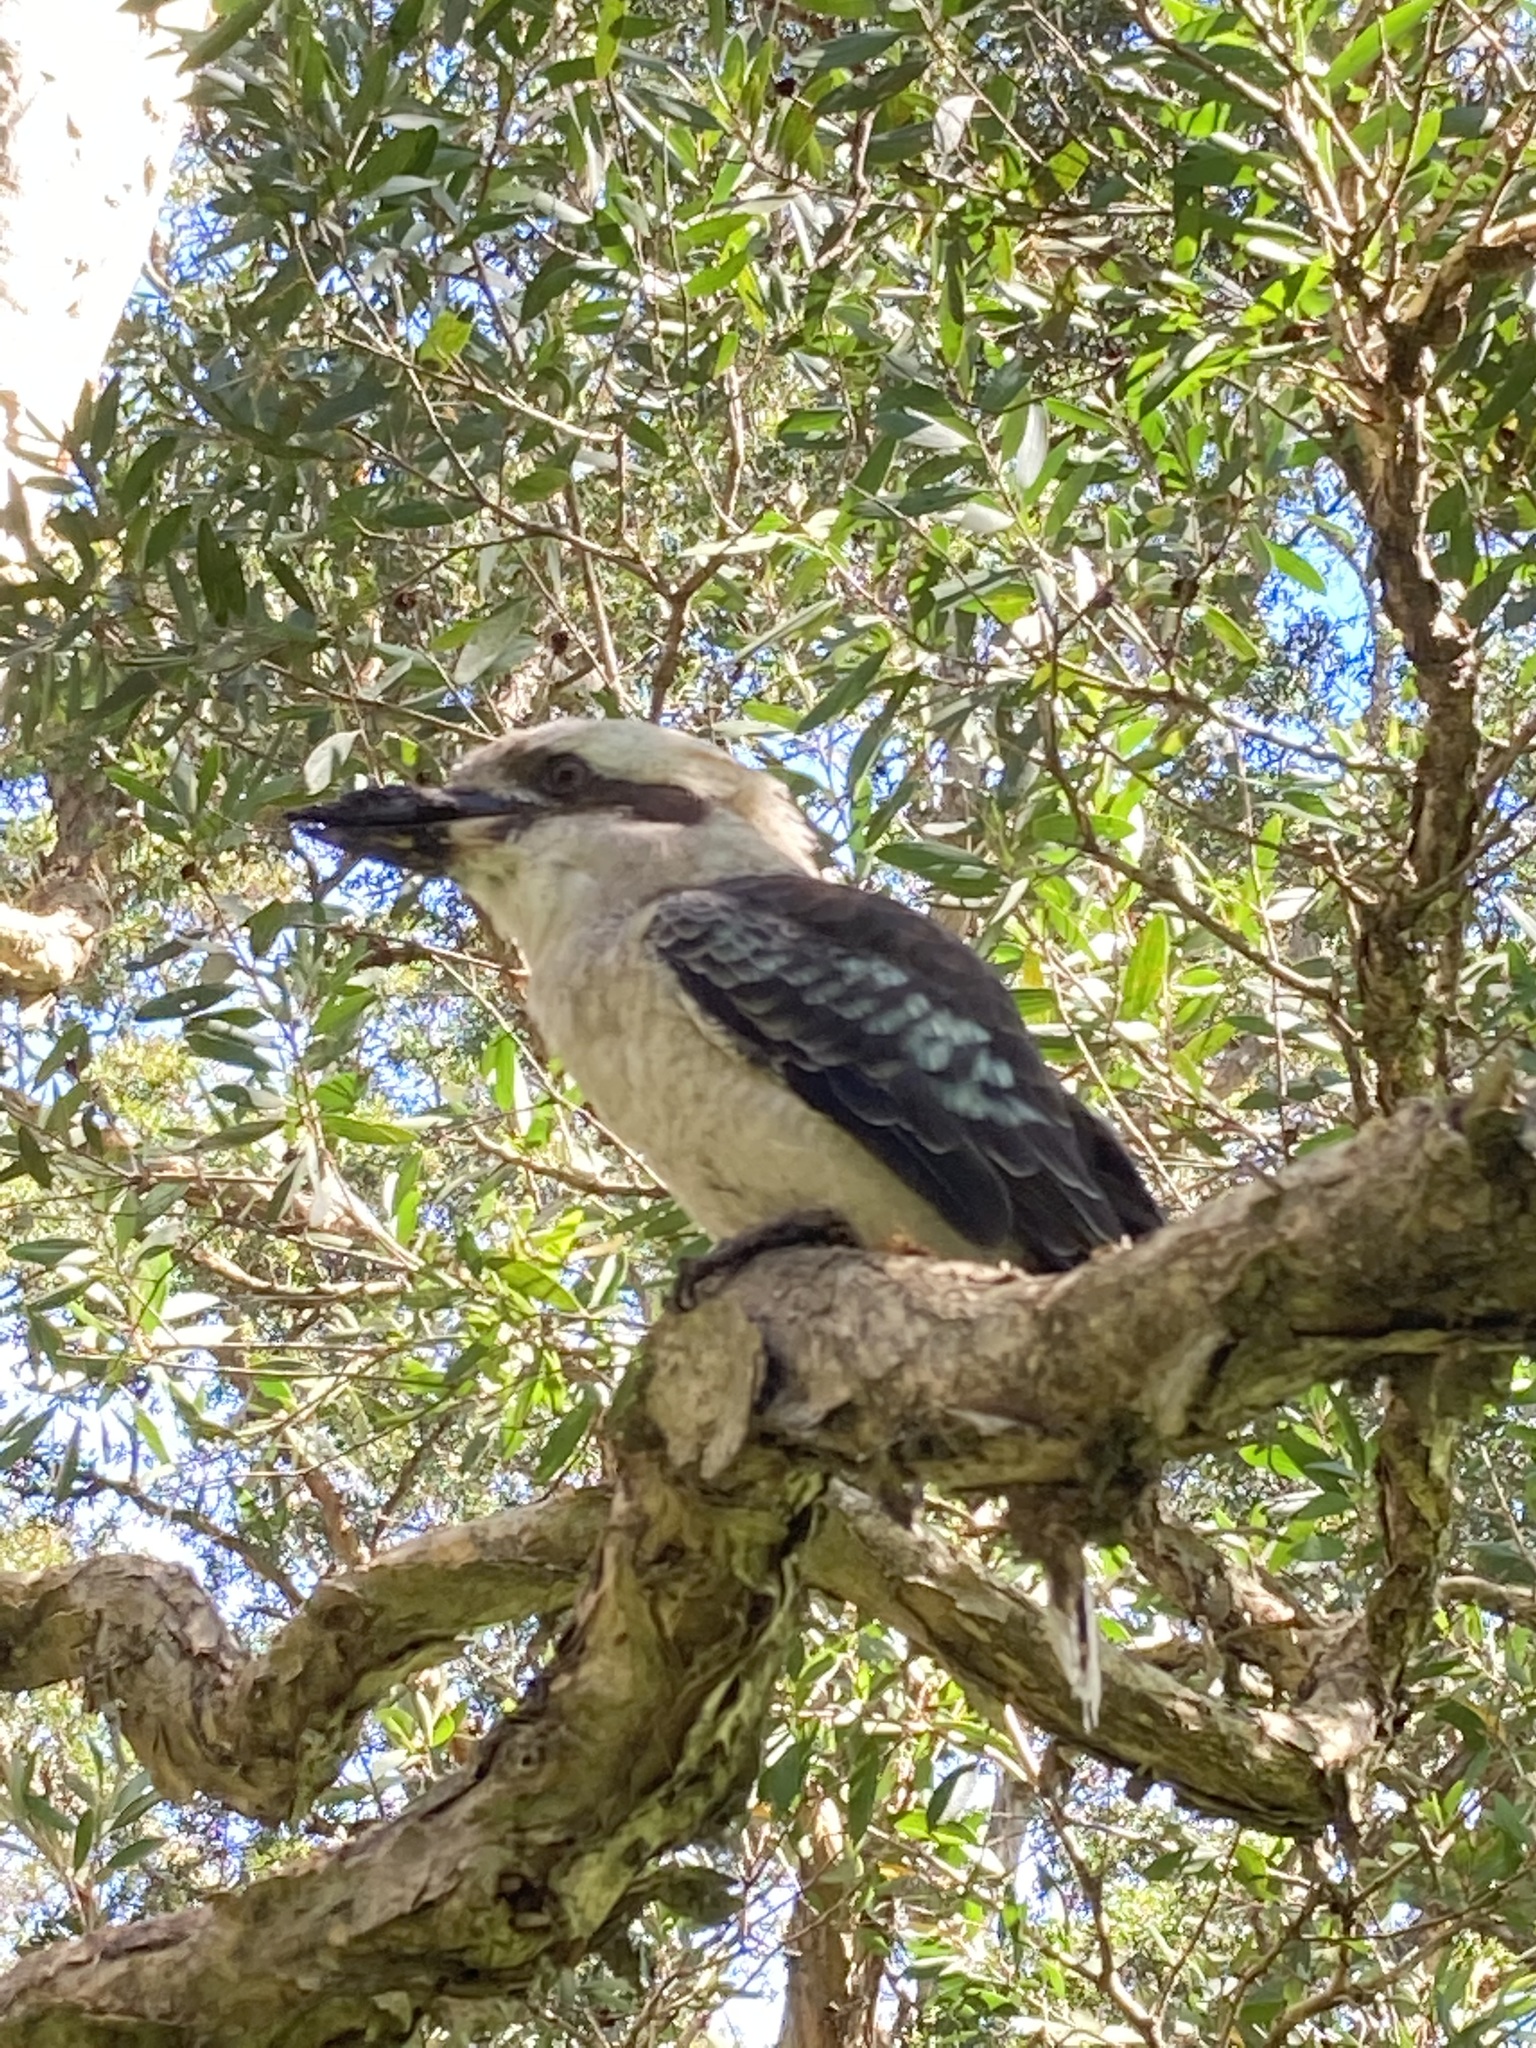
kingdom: Animalia
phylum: Chordata
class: Aves
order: Coraciiformes
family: Alcedinidae
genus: Dacelo
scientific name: Dacelo novaeguineae
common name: Laughing kookaburra
